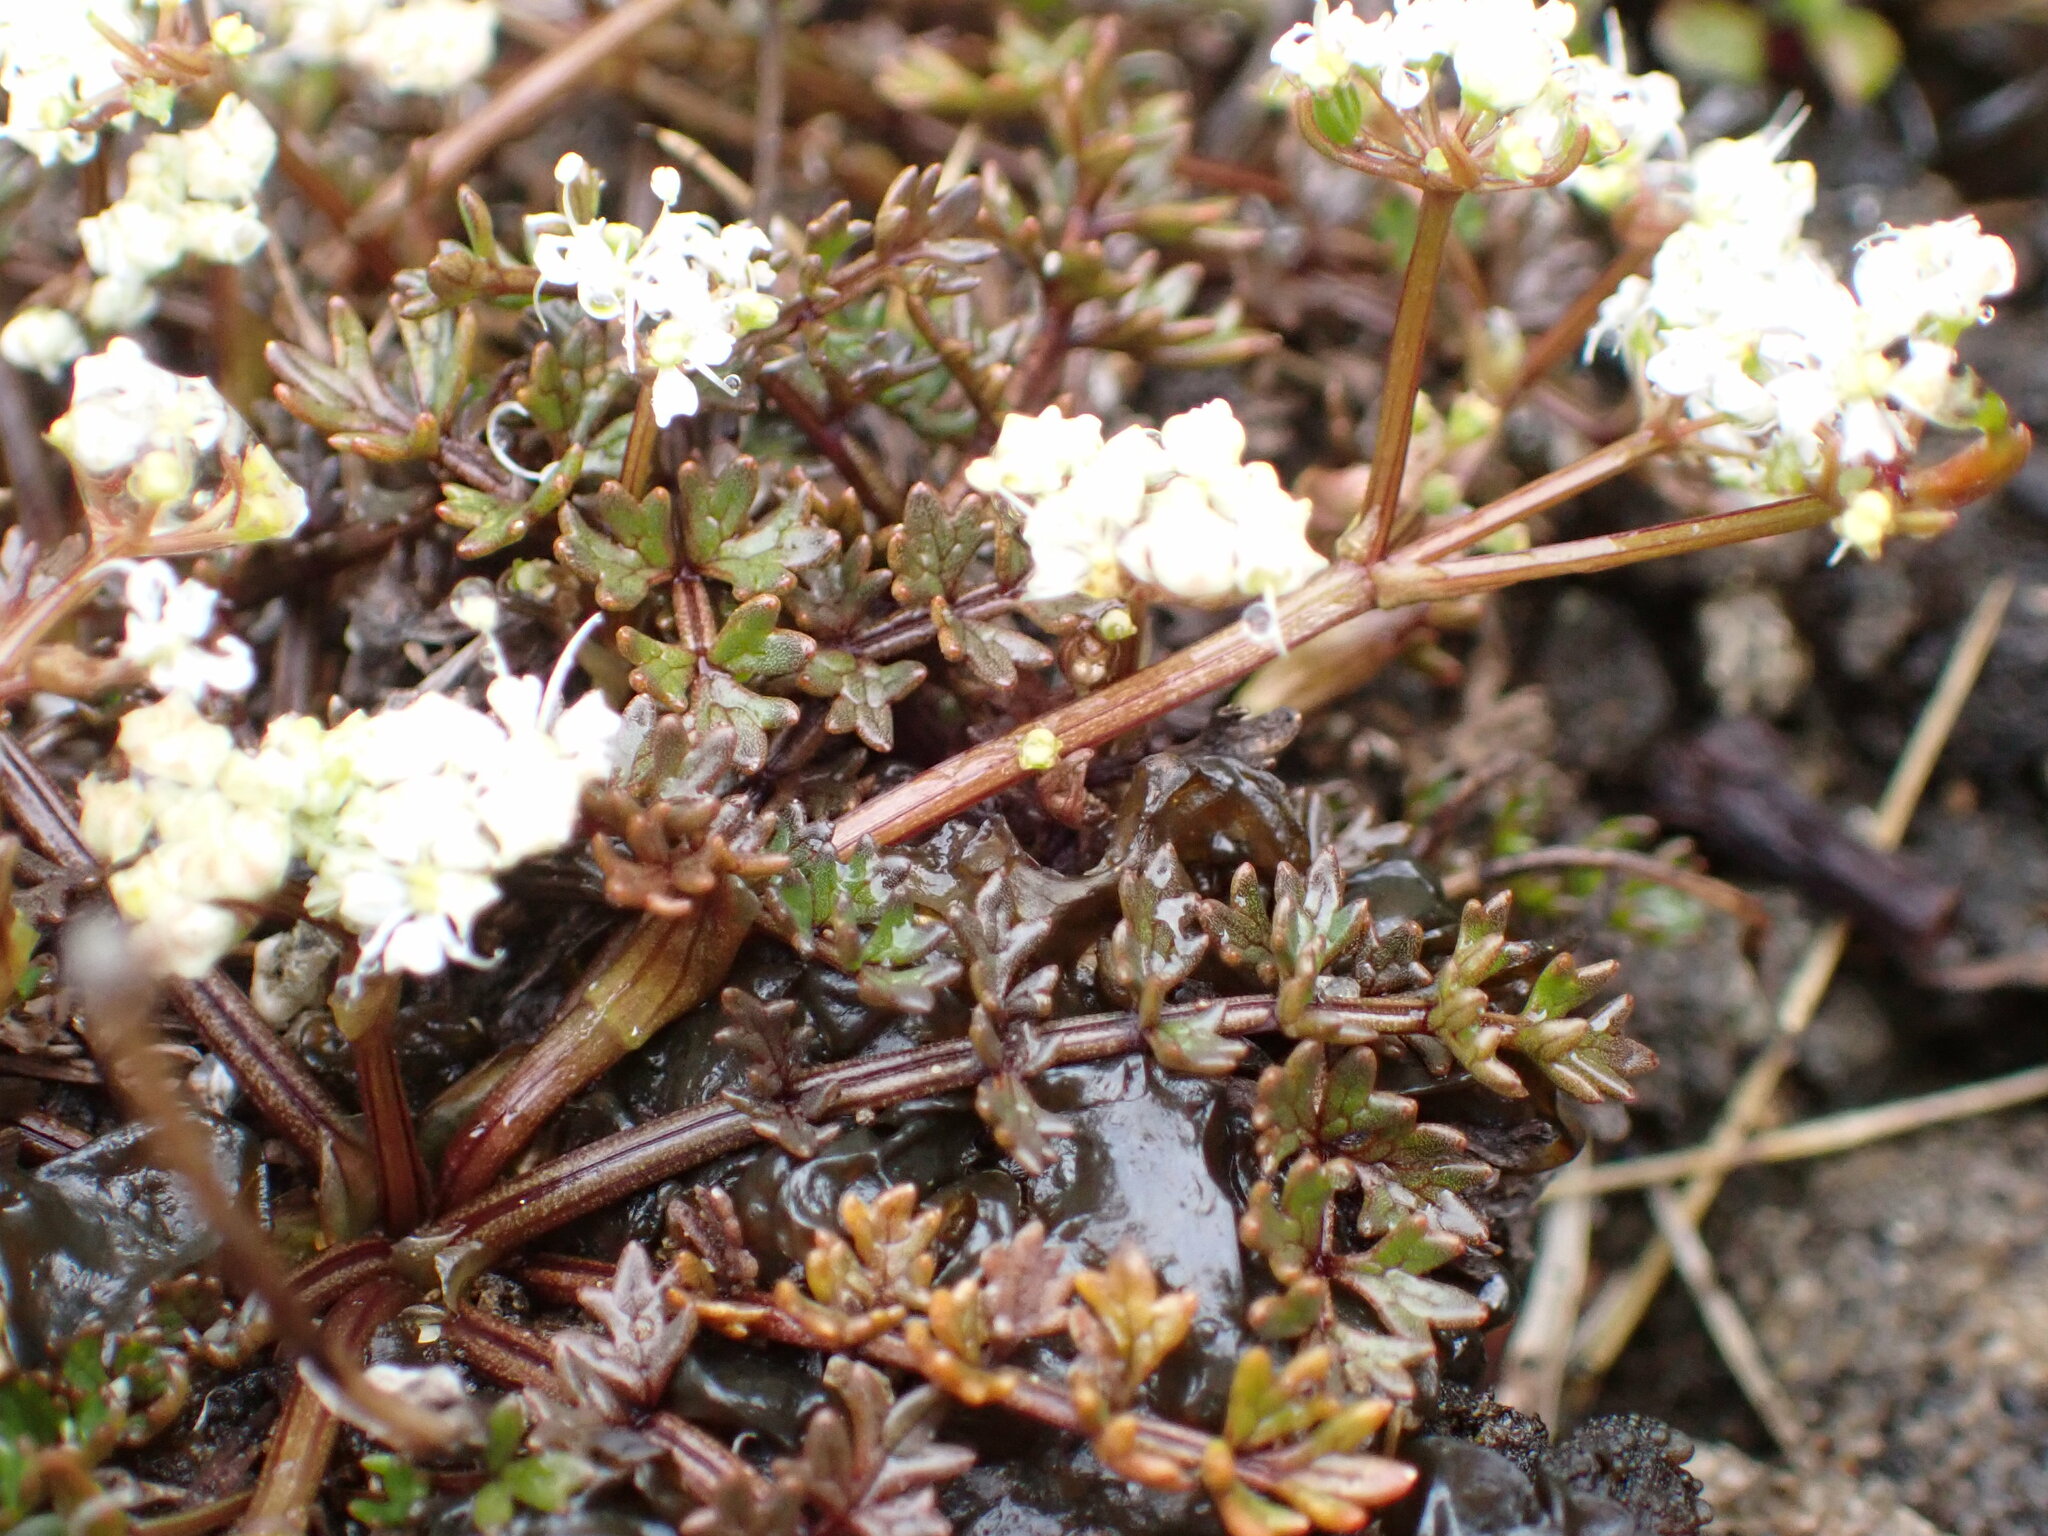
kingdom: Plantae
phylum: Tracheophyta
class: Magnoliopsida
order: Apiales
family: Apiaceae
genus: Gingidia
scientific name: Gingidia decipiens
